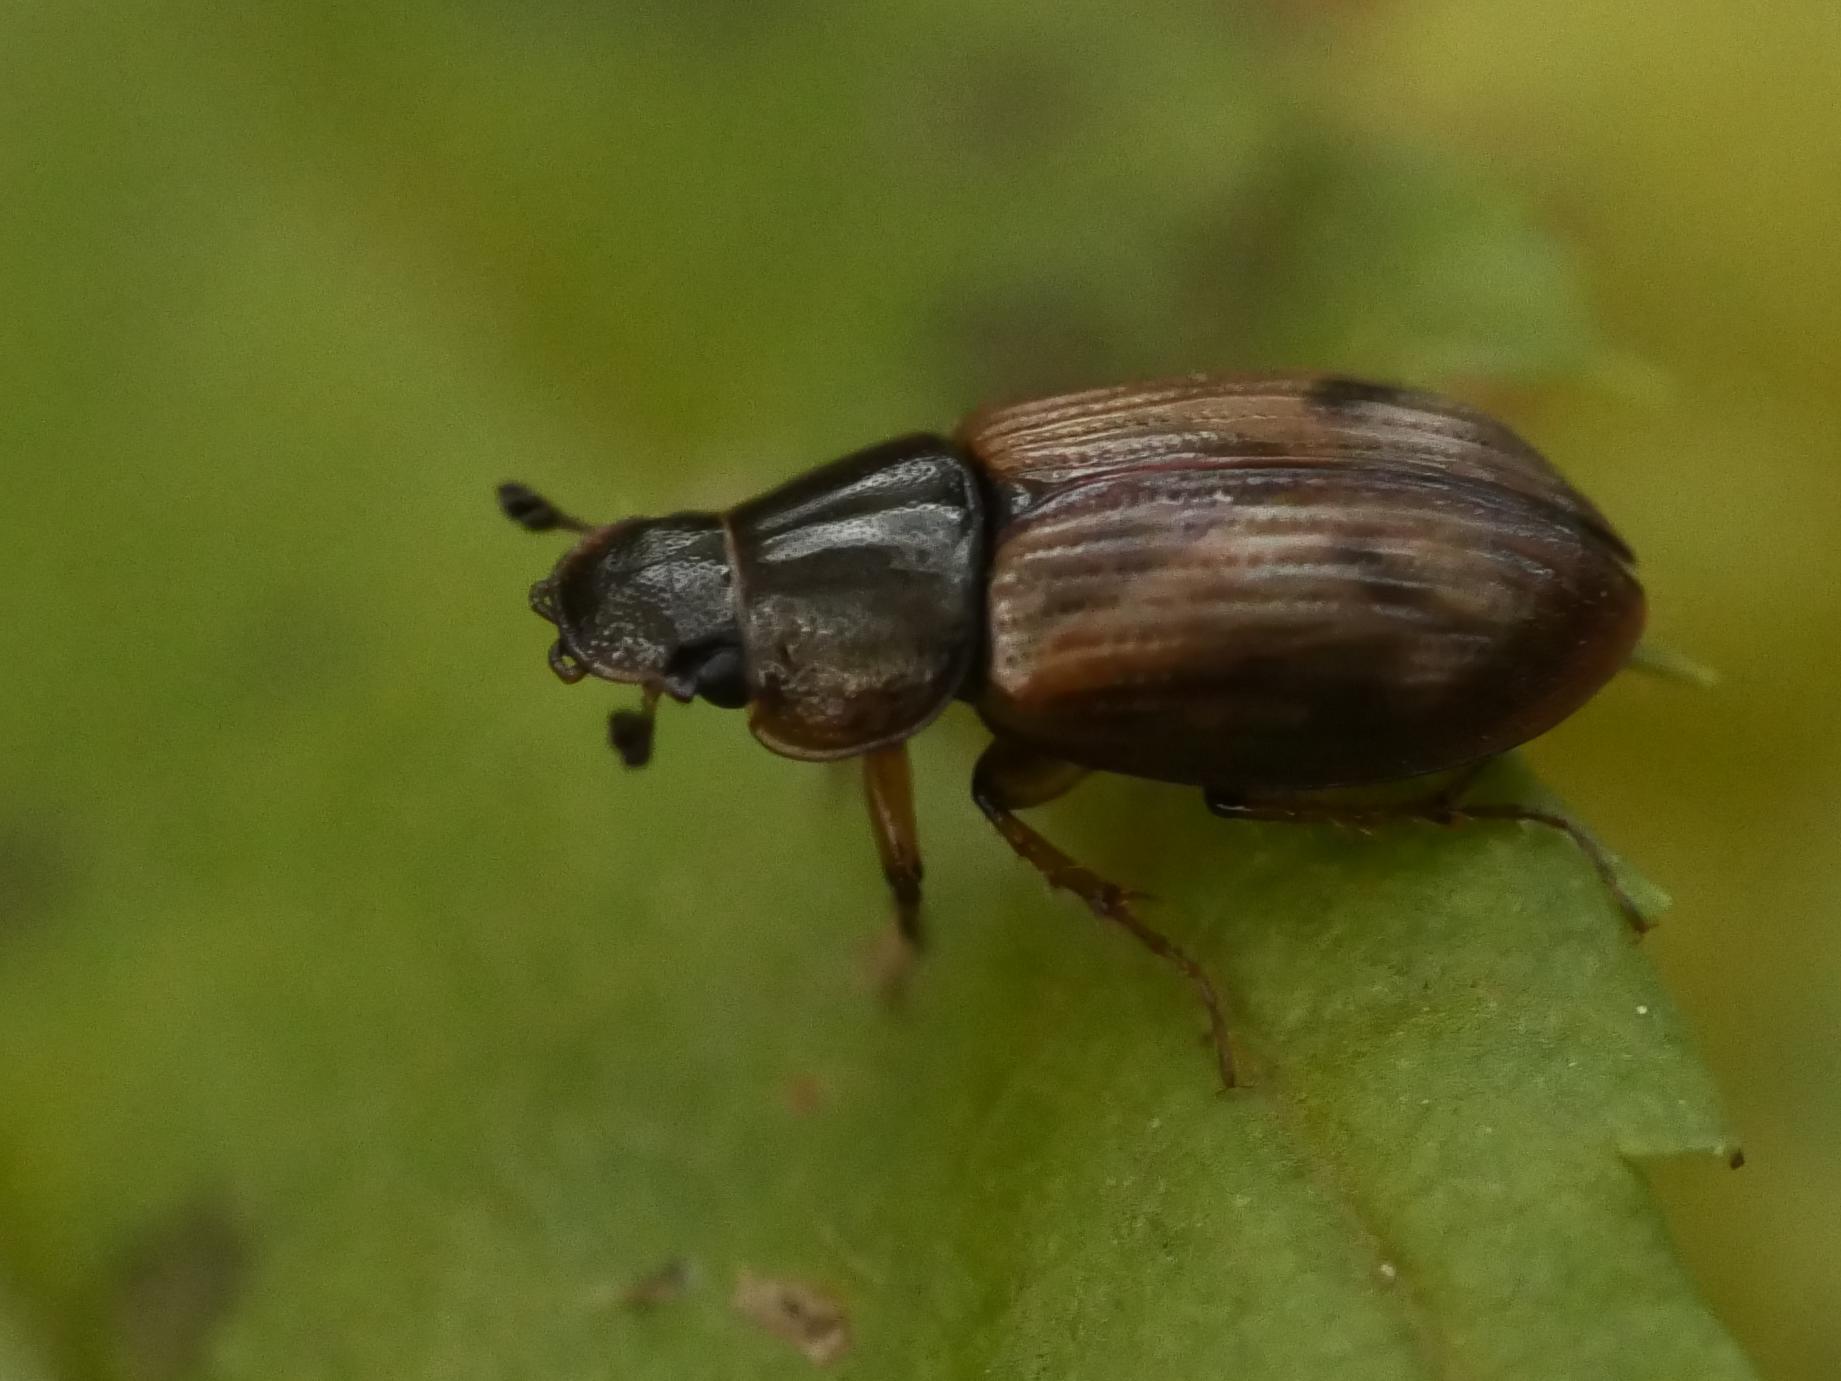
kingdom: Animalia
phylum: Arthropoda
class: Insecta
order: Coleoptera
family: Scarabaeidae
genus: Nimbus
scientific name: Nimbus contaminatus
